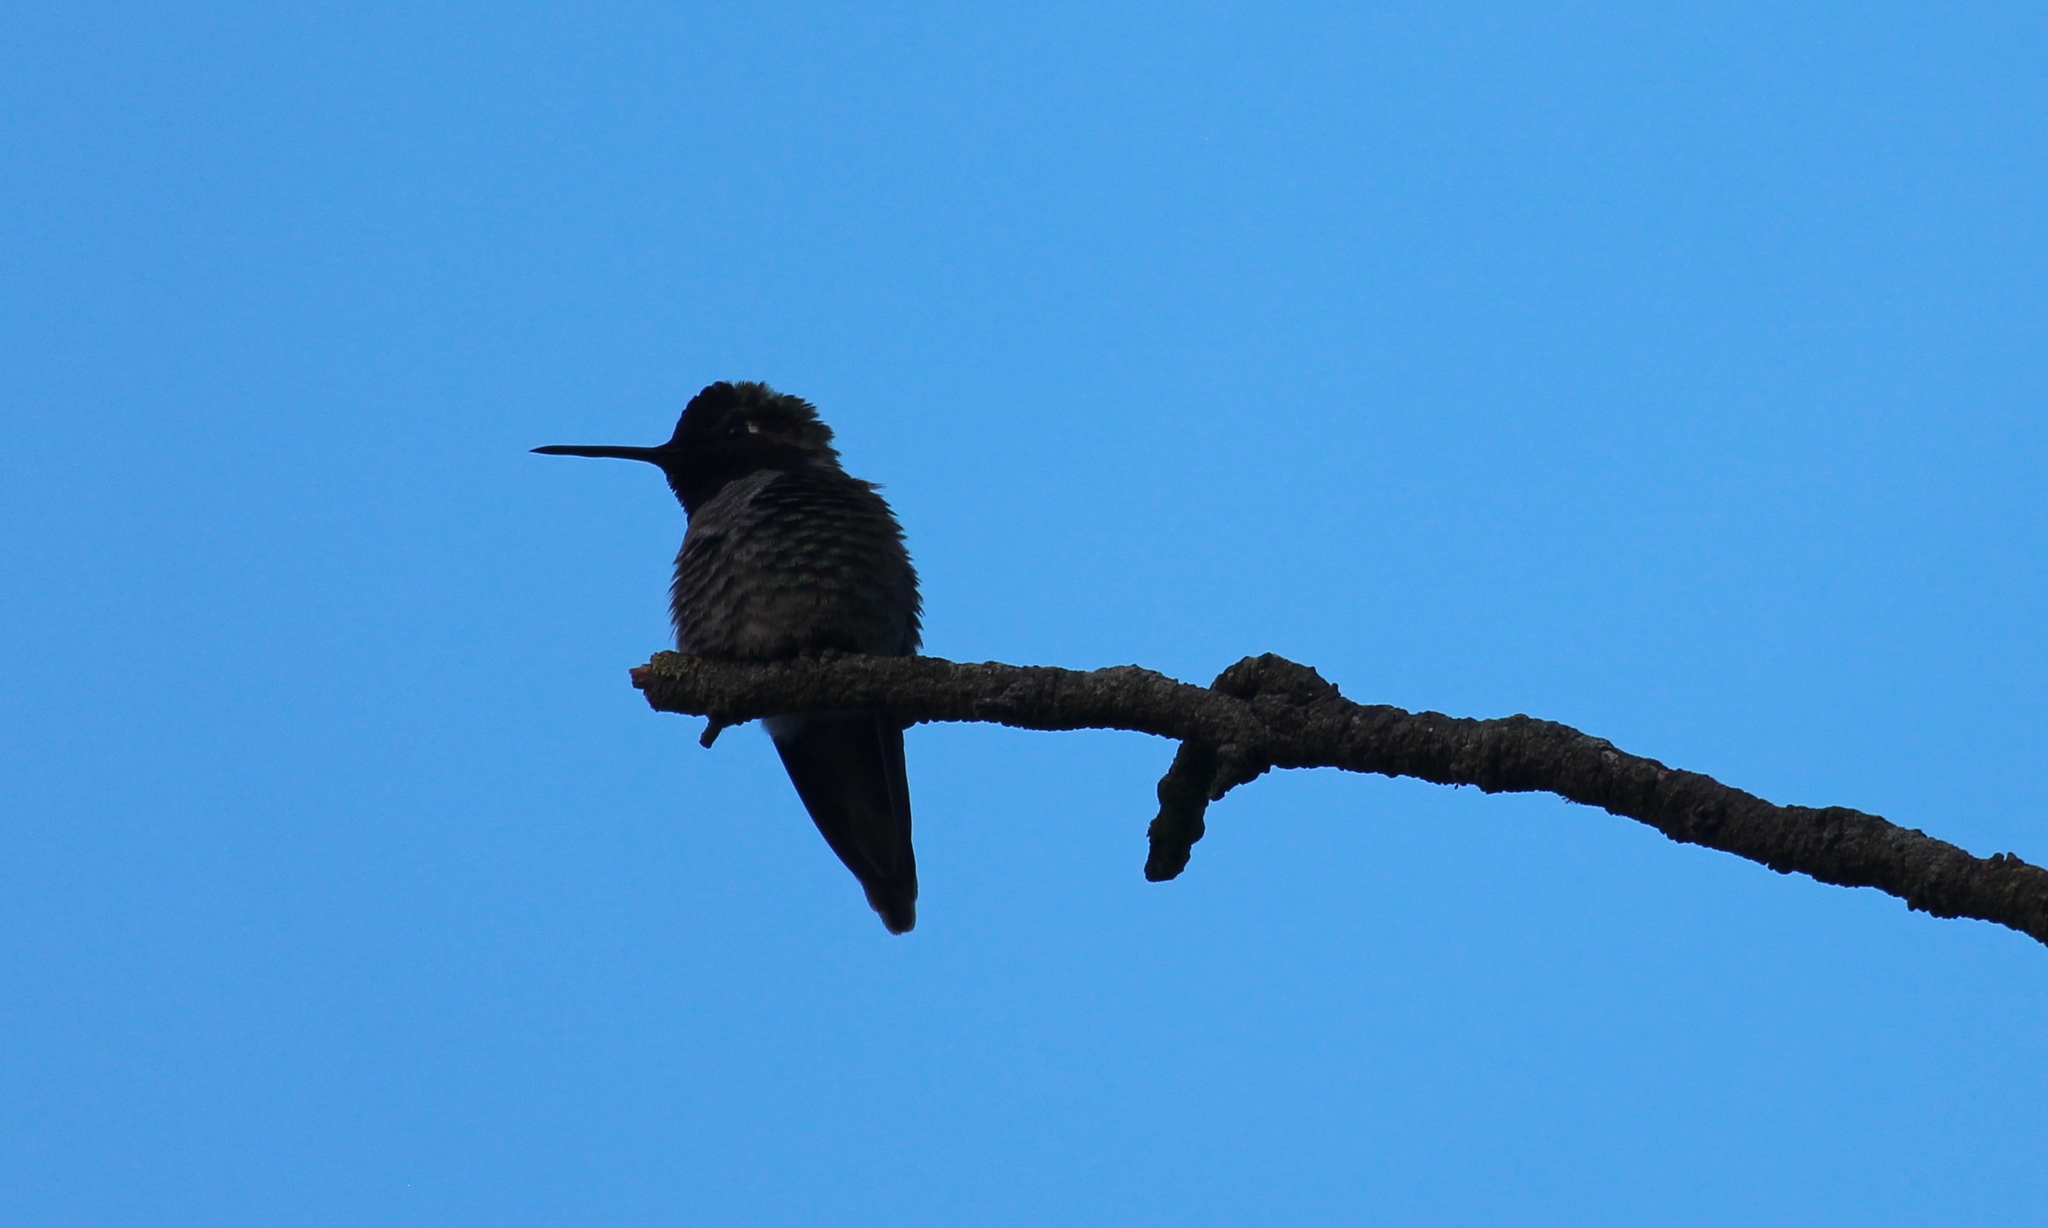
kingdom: Animalia
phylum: Chordata
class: Aves
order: Apodiformes
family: Trochilidae
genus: Calypte
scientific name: Calypte anna
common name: Anna's hummingbird
